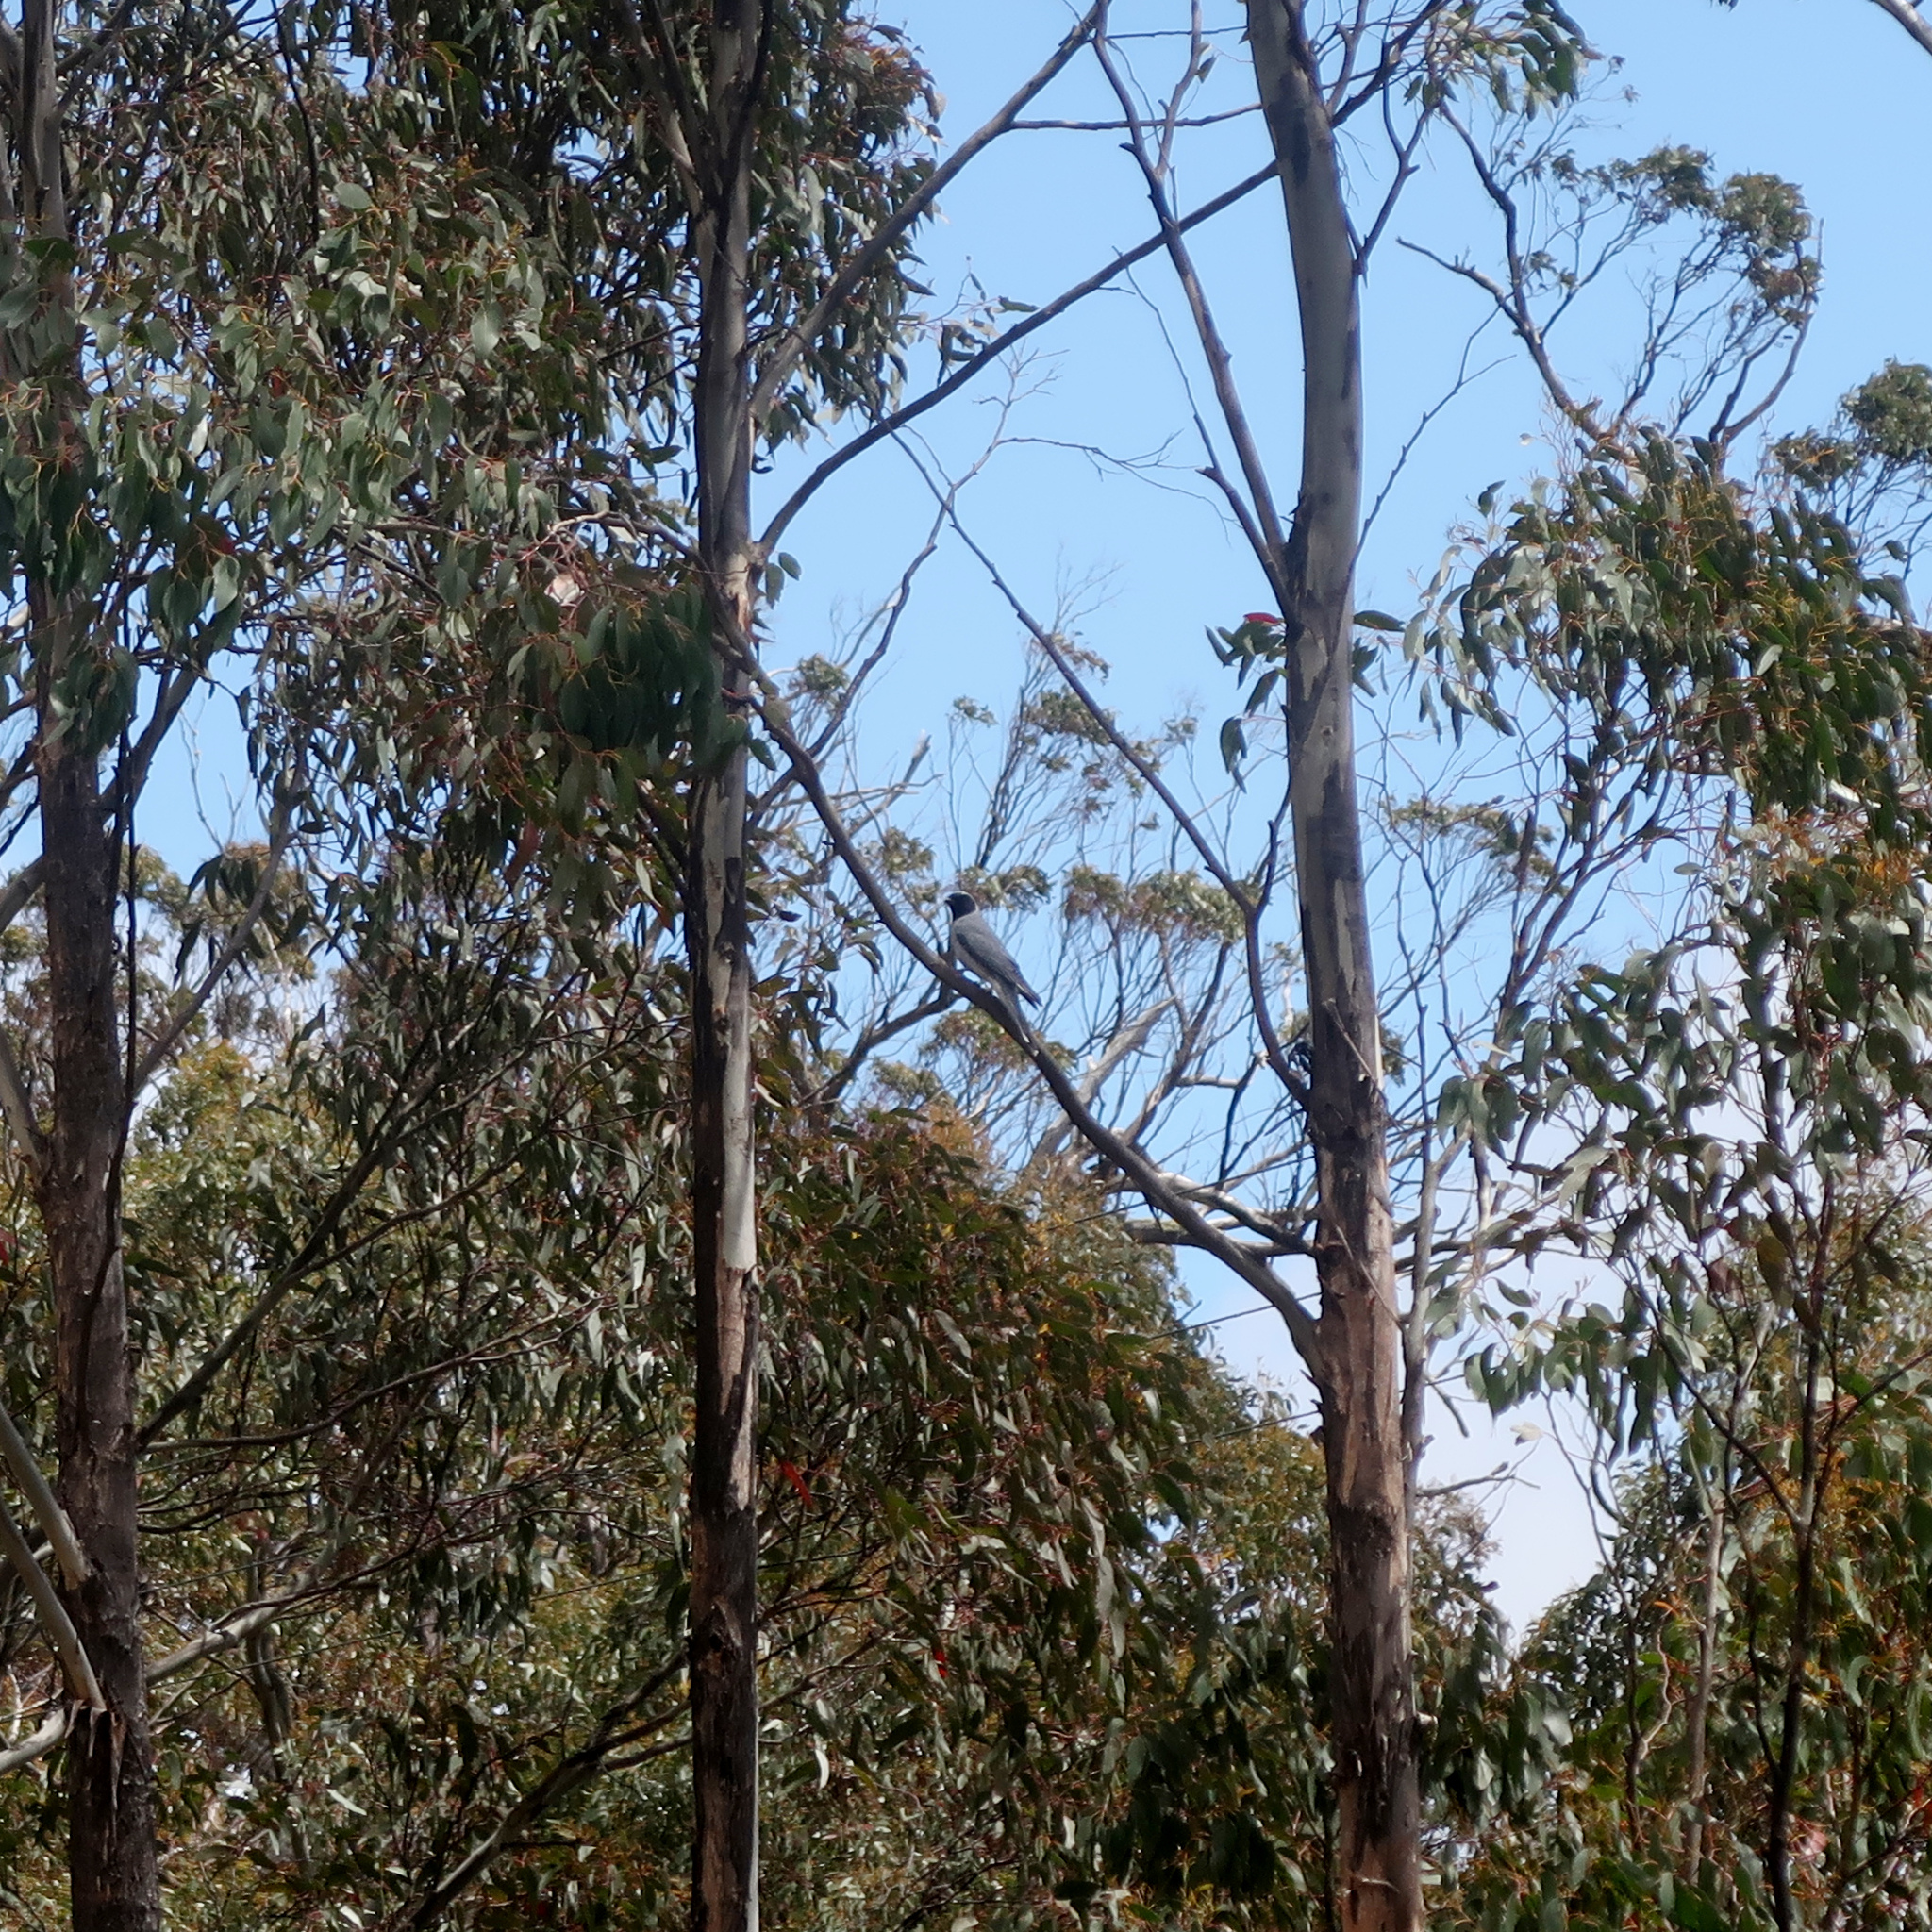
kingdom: Animalia
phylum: Chordata
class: Aves
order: Passeriformes
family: Campephagidae
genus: Coracina
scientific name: Coracina novaehollandiae
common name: Black-faced cuckooshrike
